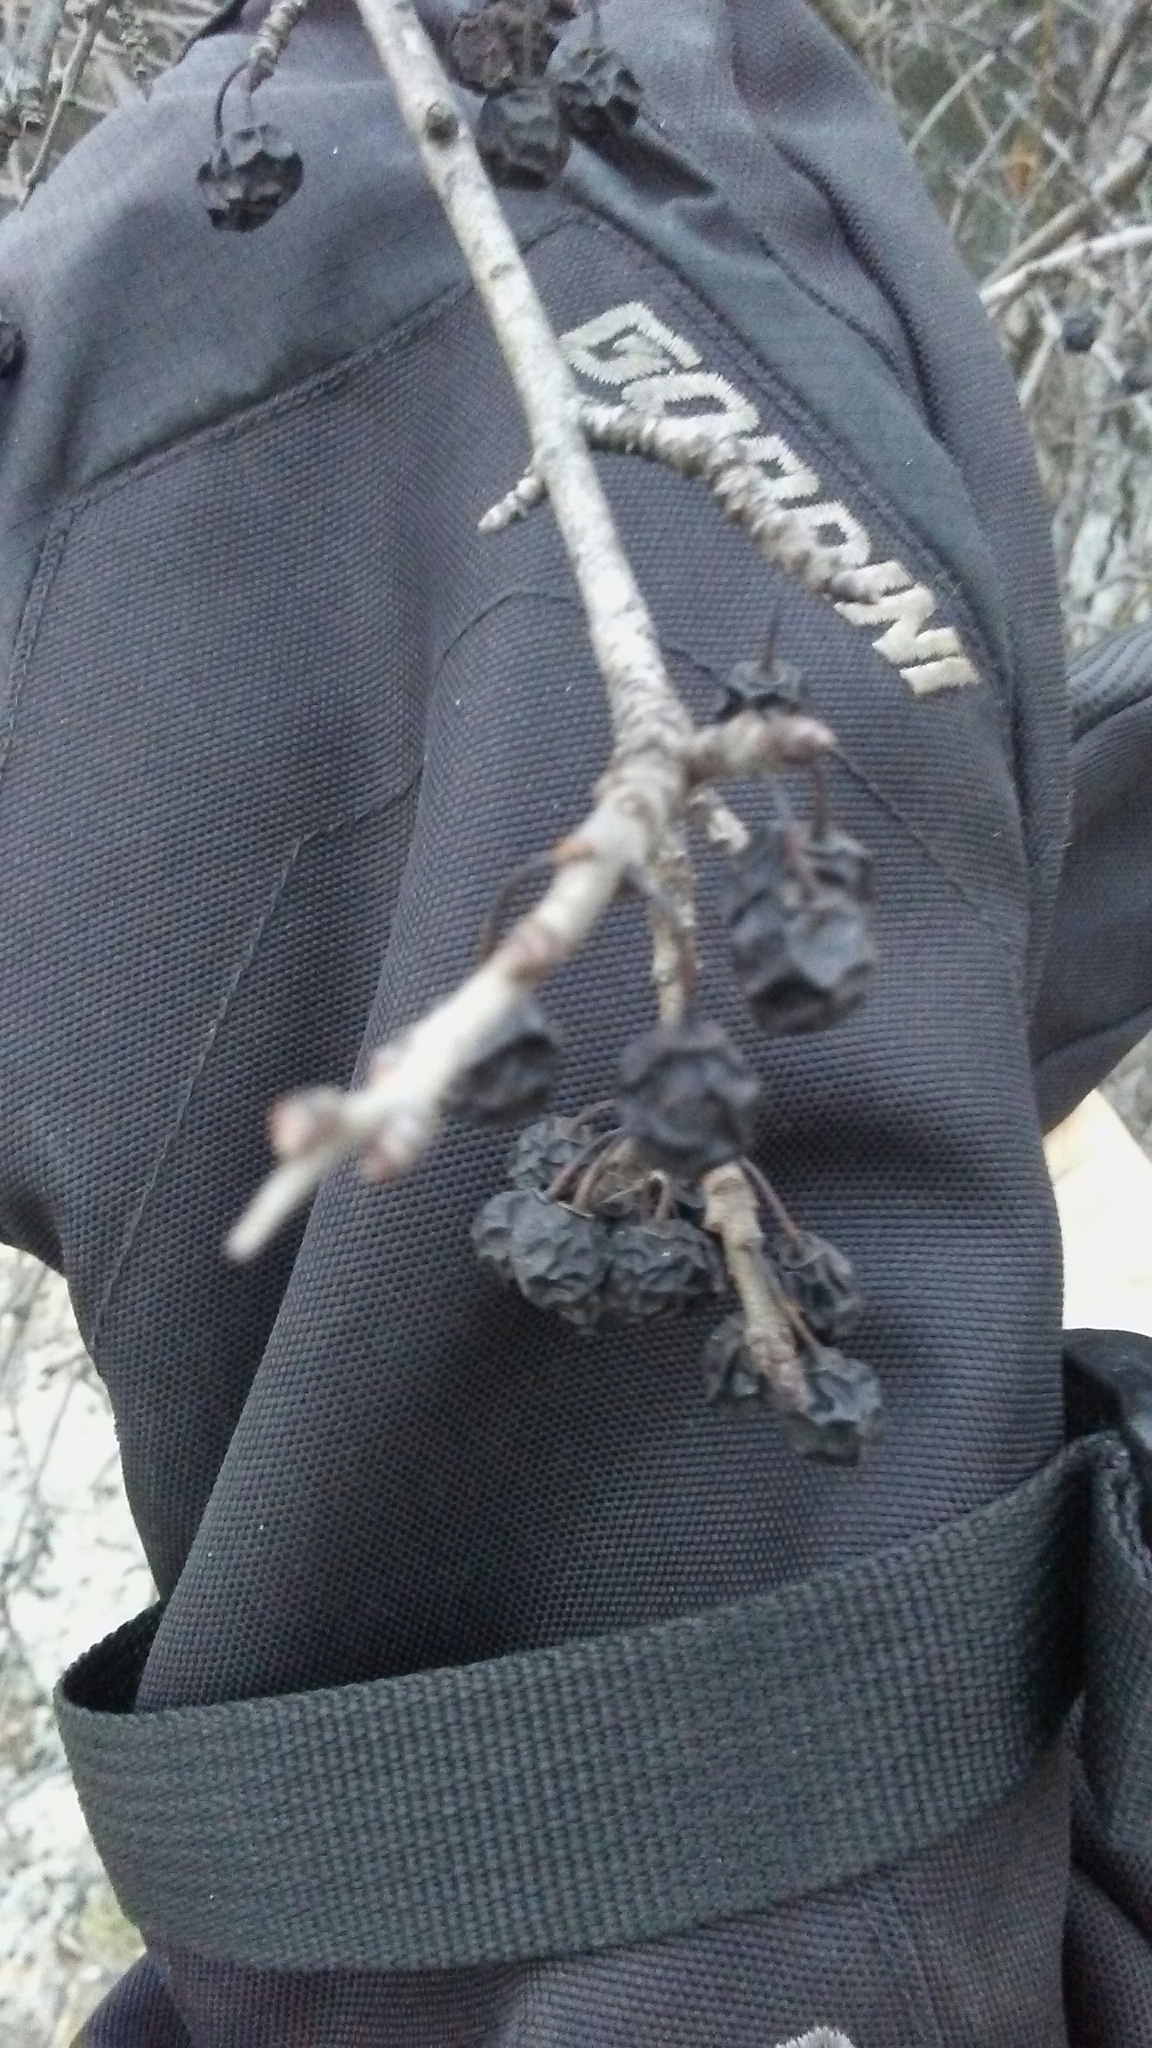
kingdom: Plantae
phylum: Tracheophyta
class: Magnoliopsida
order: Rosales
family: Rhamnaceae
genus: Rhamnus
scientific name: Rhamnus cathartica
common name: Common buckthorn
